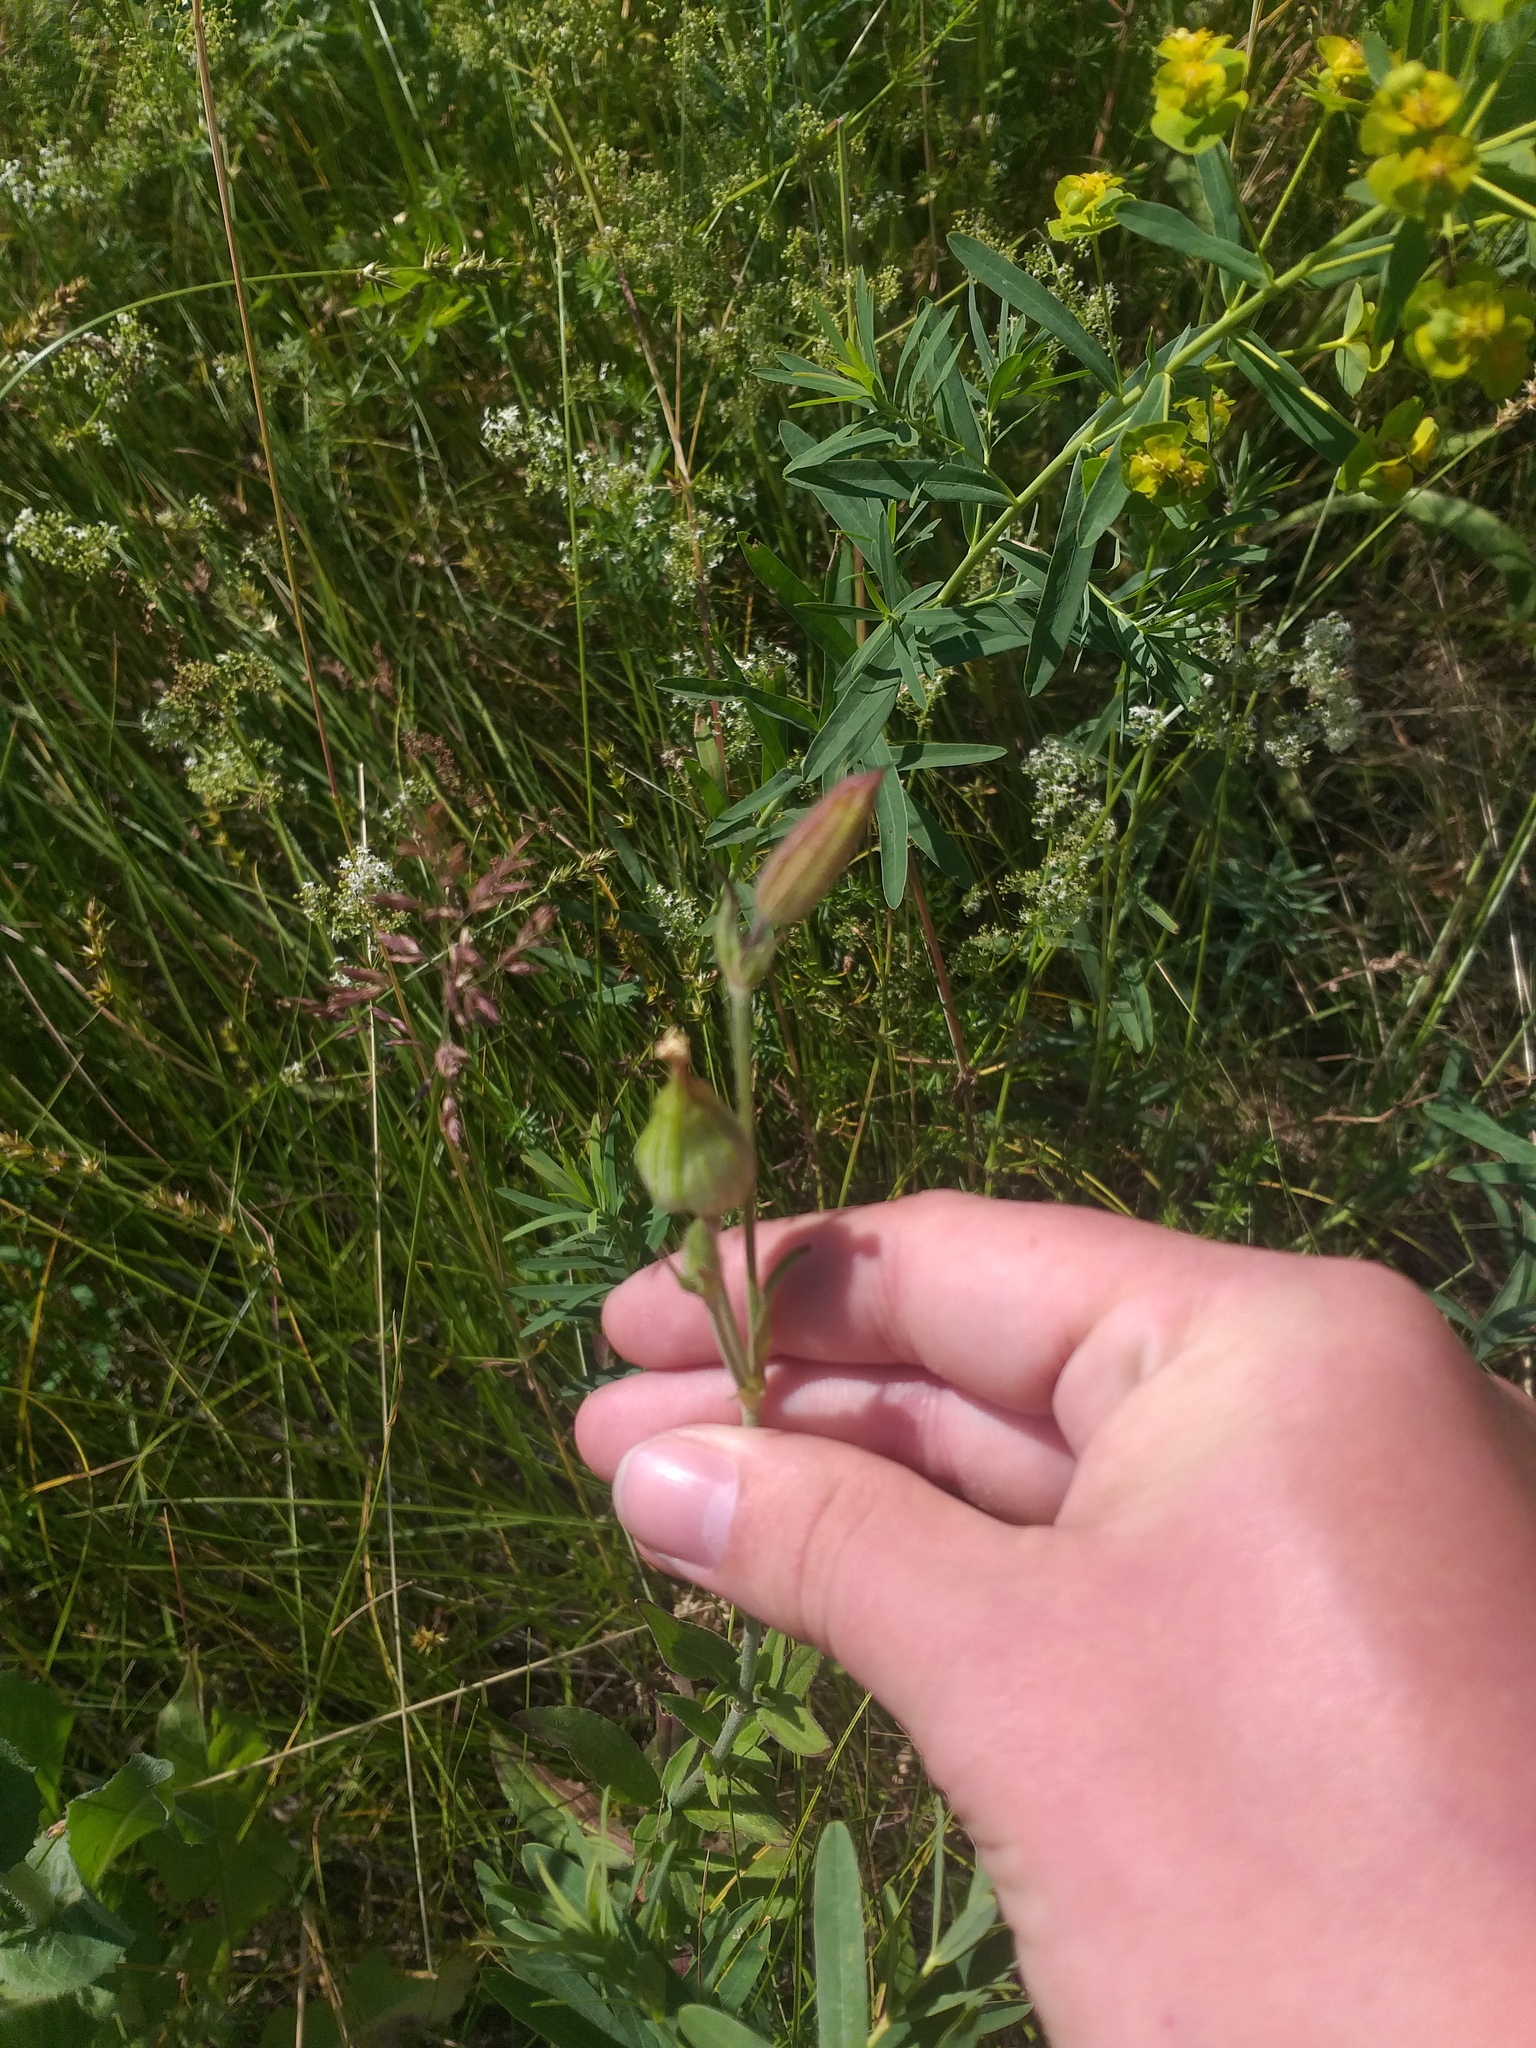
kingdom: Plantae
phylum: Tracheophyta
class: Magnoliopsida
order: Caryophyllales
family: Caryophyllaceae
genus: Silene
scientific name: Silene latifolia
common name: White campion
